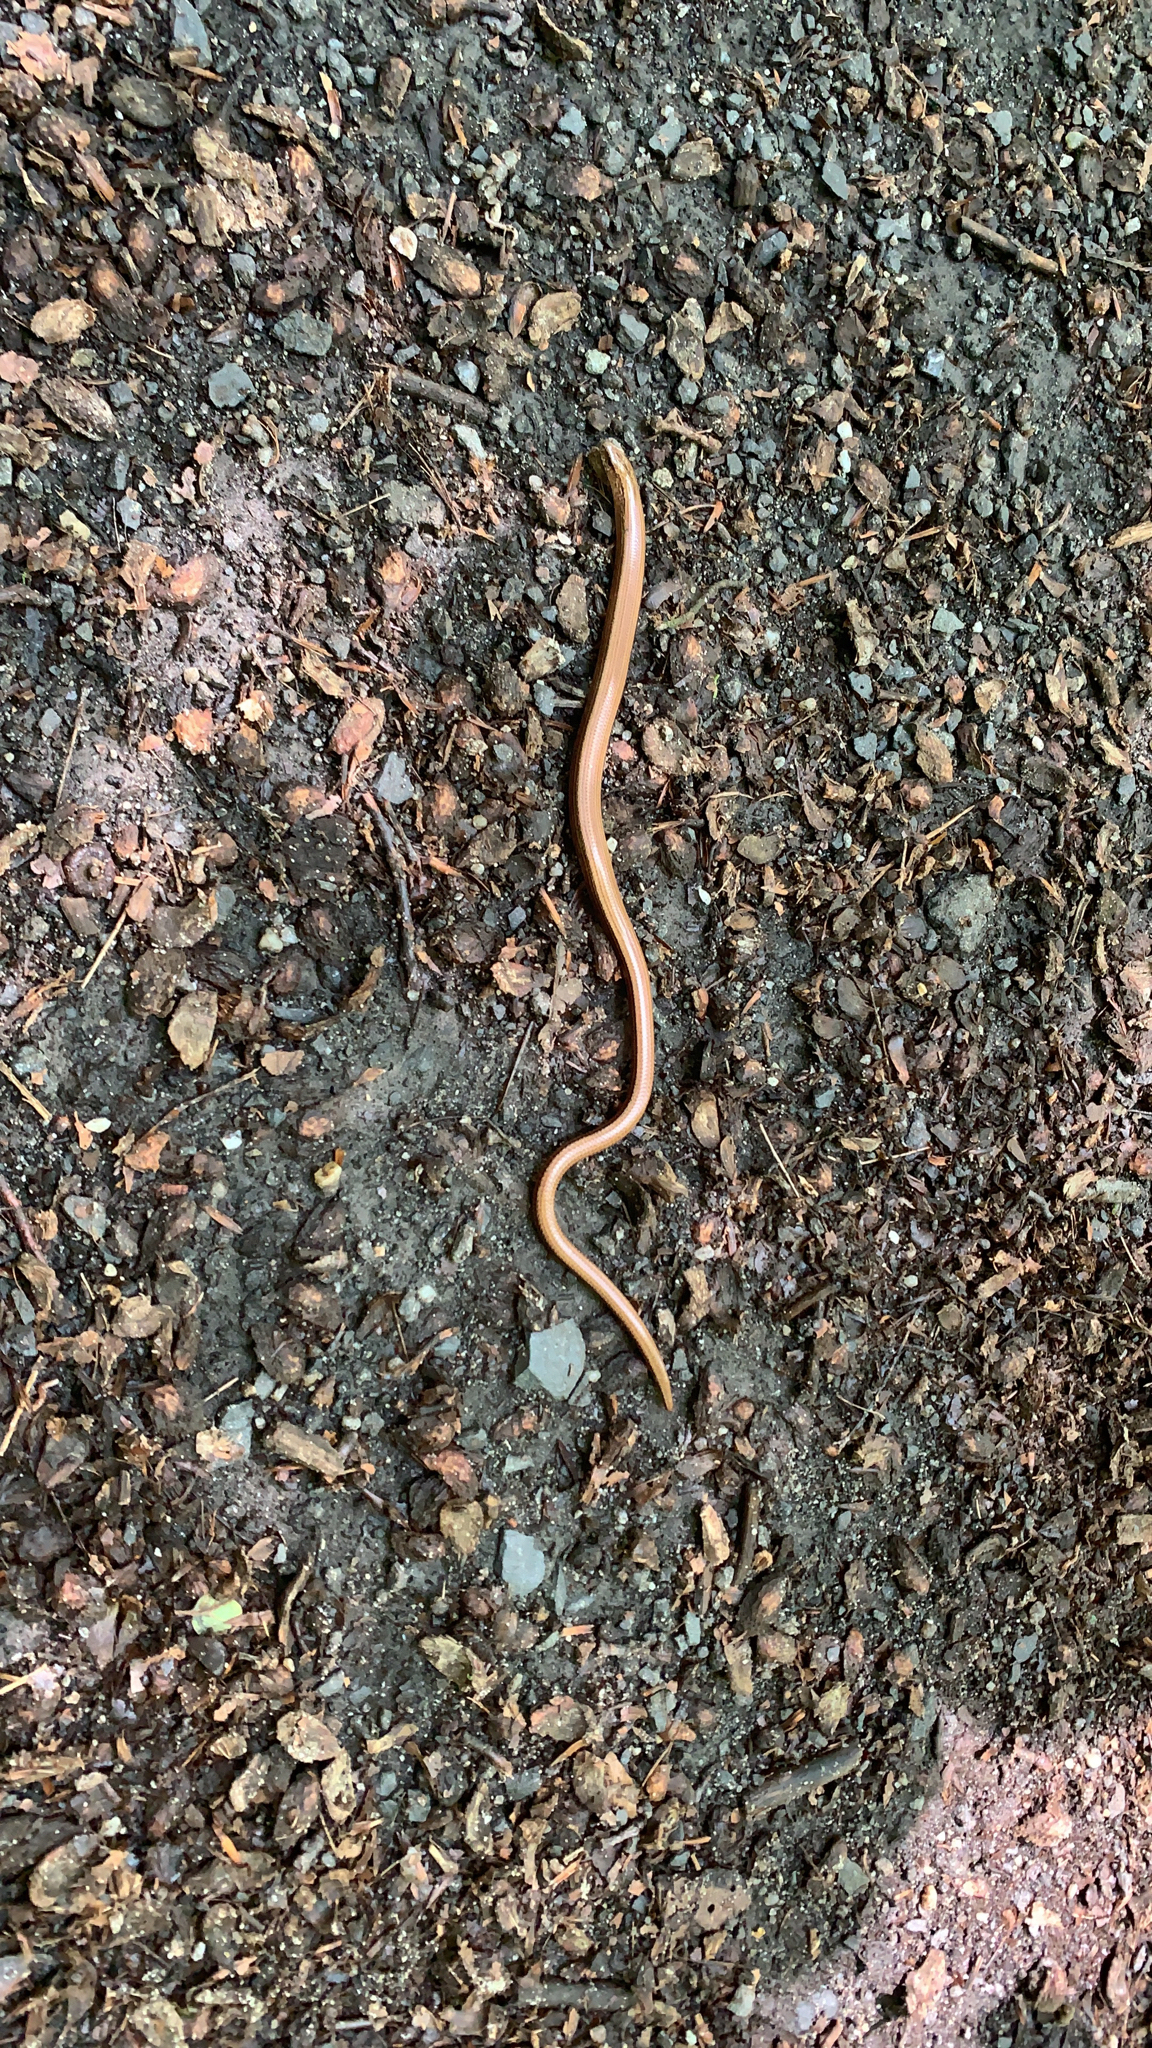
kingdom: Animalia
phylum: Chordata
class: Squamata
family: Anguidae
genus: Anguis
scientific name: Anguis fragilis
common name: Slow worm
